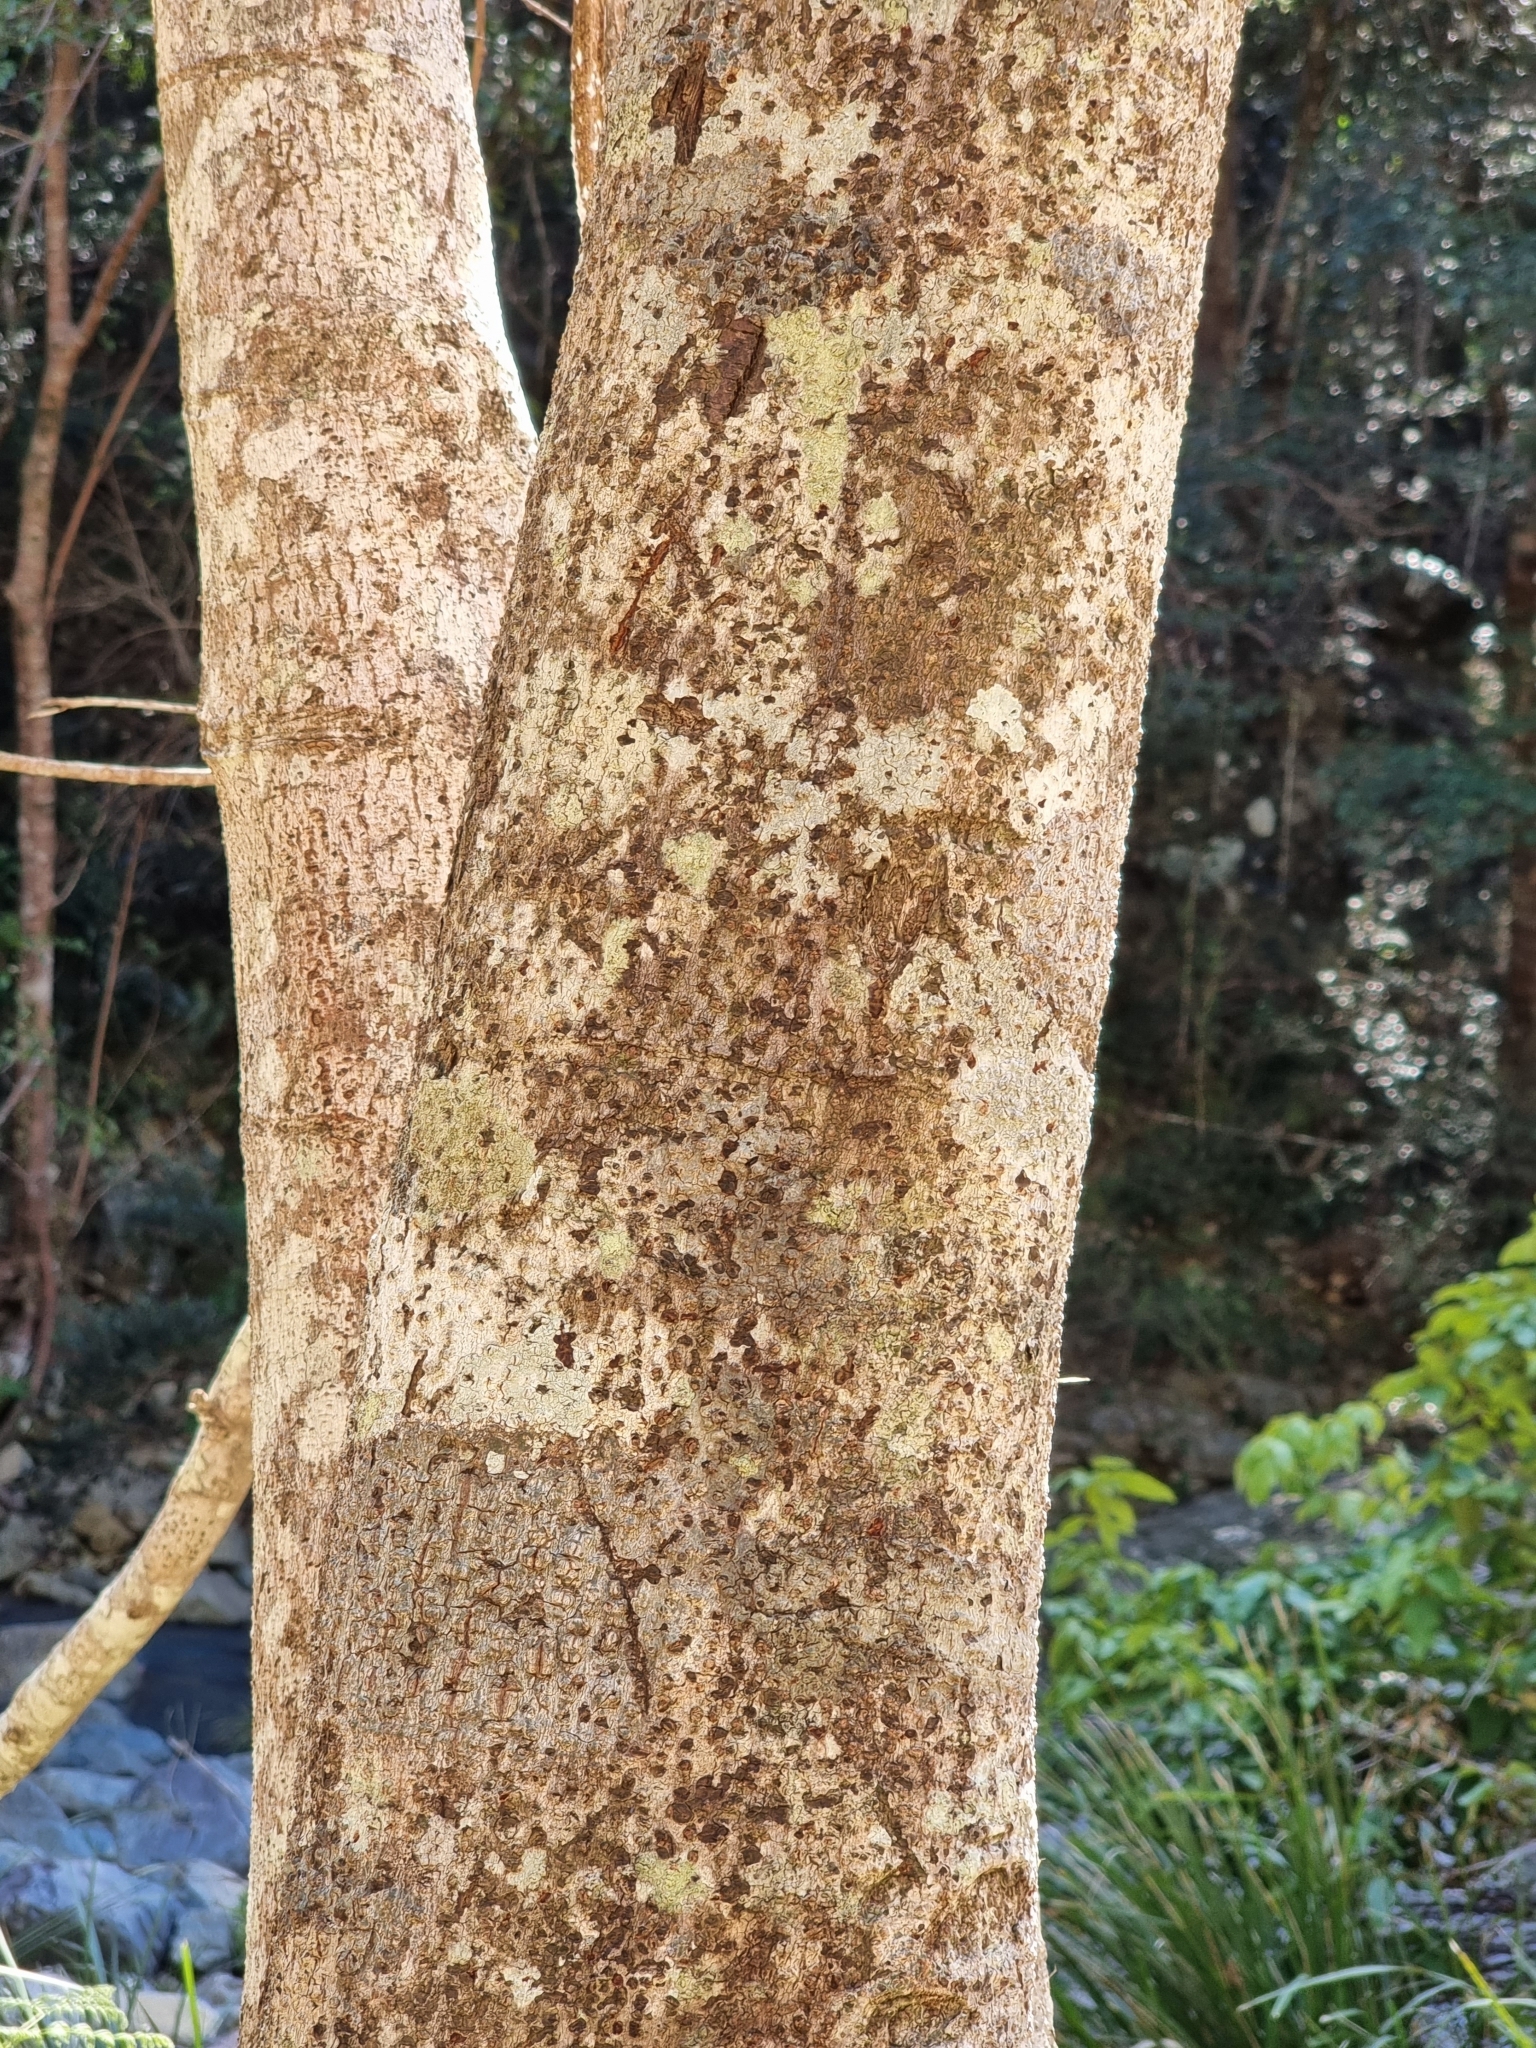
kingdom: Plantae
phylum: Tracheophyta
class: Magnoliopsida
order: Malpighiales
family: Euphorbiaceae
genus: Macaranga
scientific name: Macaranga tanarius
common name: Parasol leaf tree
